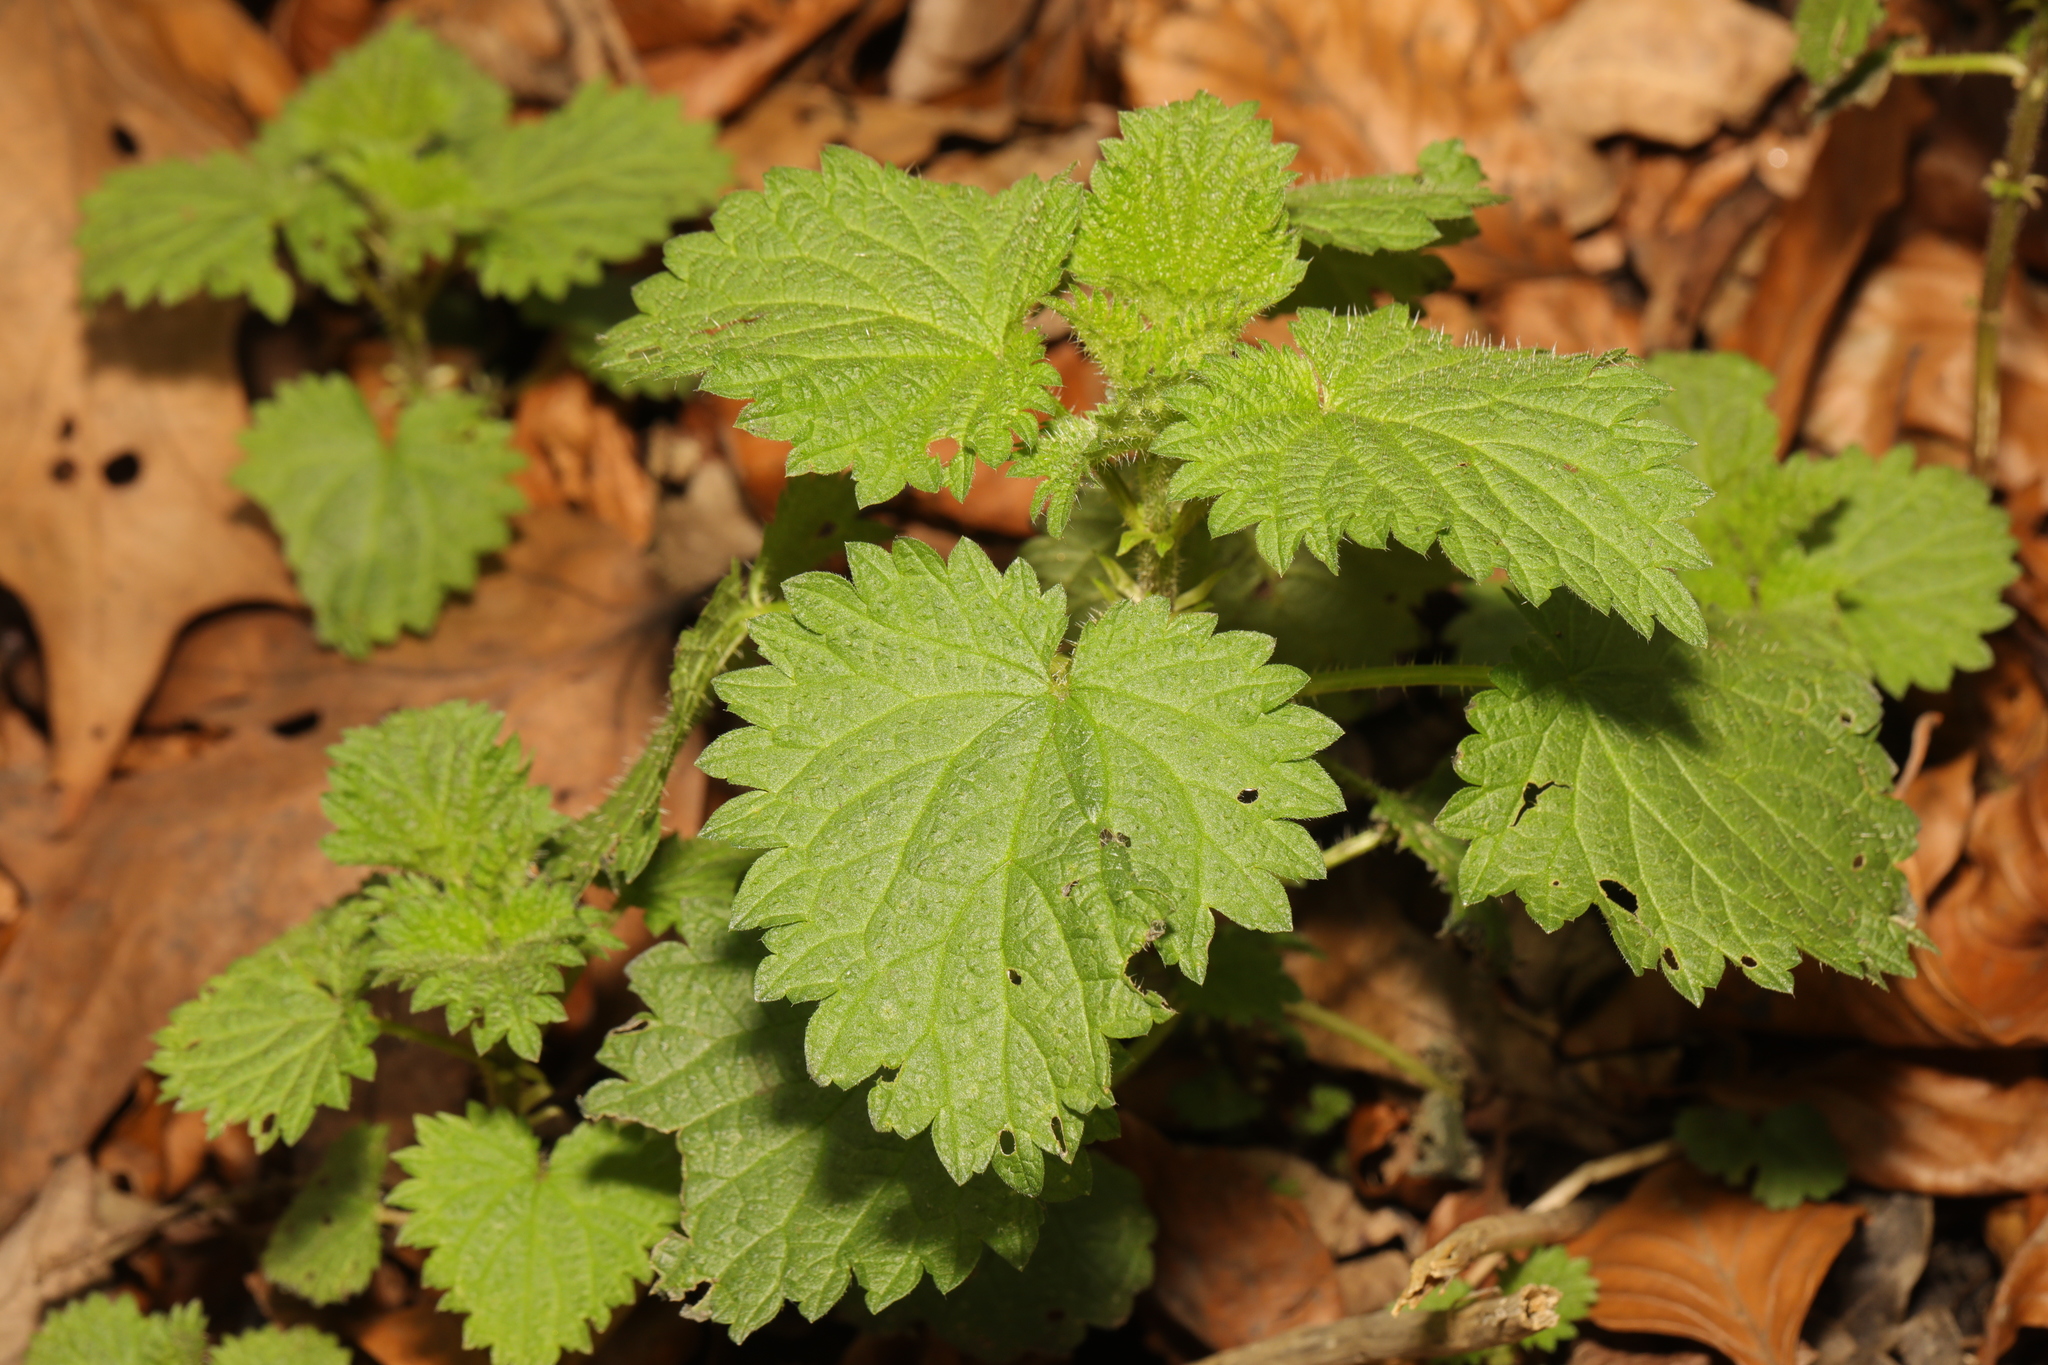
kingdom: Plantae
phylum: Tracheophyta
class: Magnoliopsida
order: Rosales
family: Urticaceae
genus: Urtica
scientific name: Urtica dioica
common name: Common nettle
